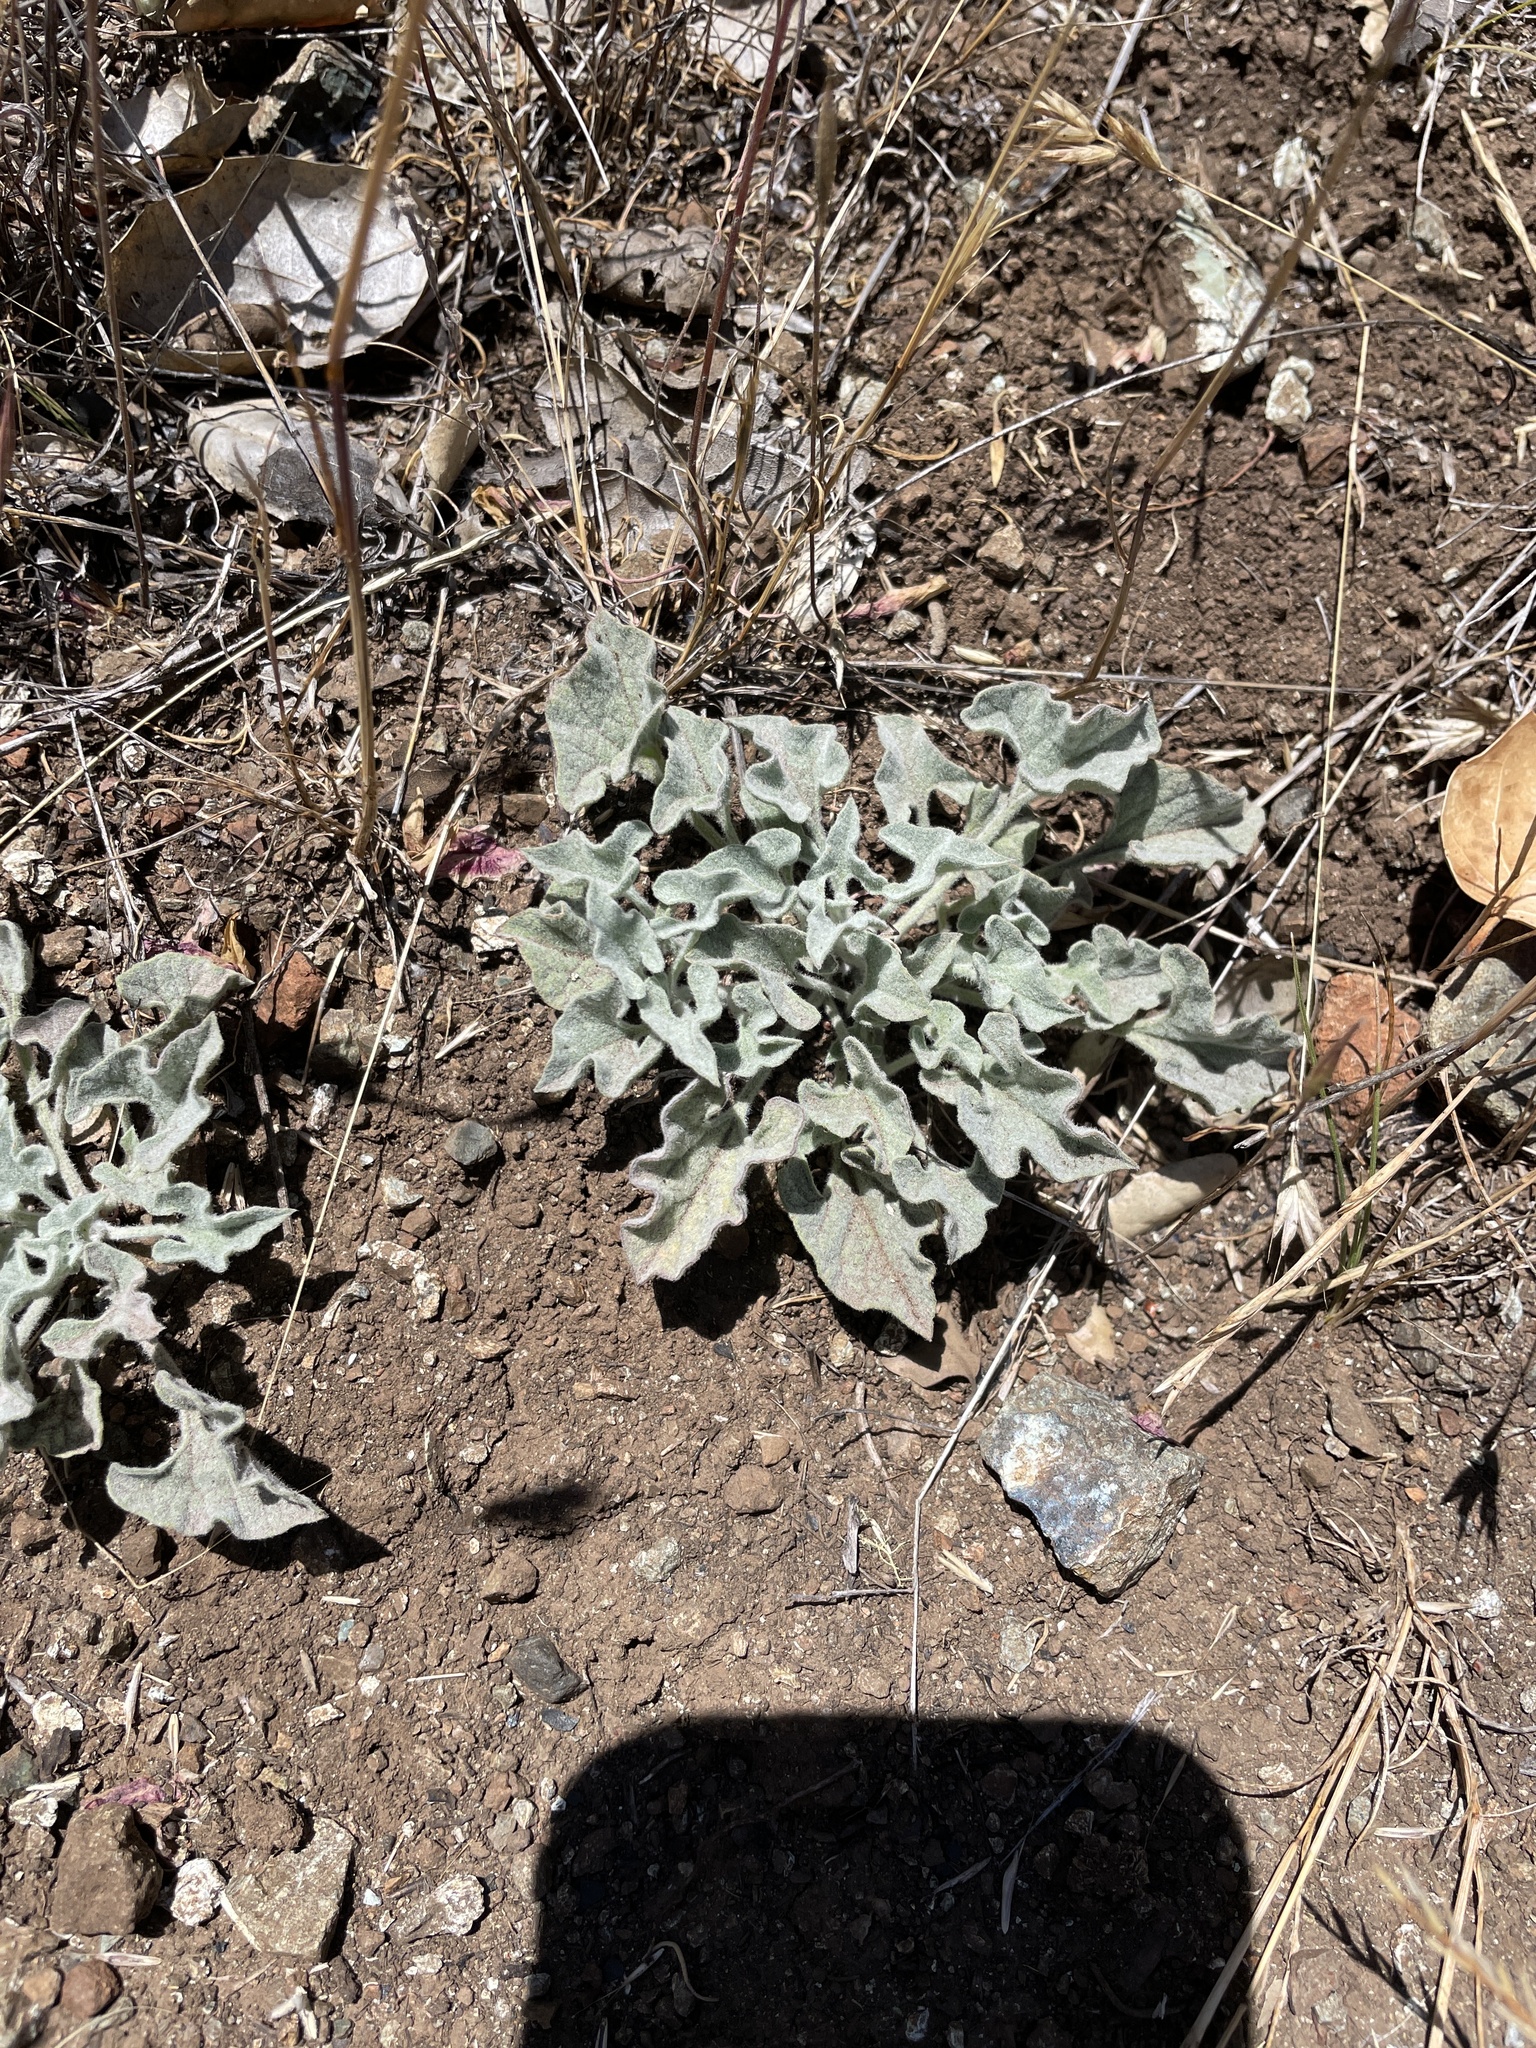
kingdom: Plantae
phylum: Tracheophyta
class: Magnoliopsida
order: Solanales
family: Convolvulaceae
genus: Calystegia
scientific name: Calystegia collina
